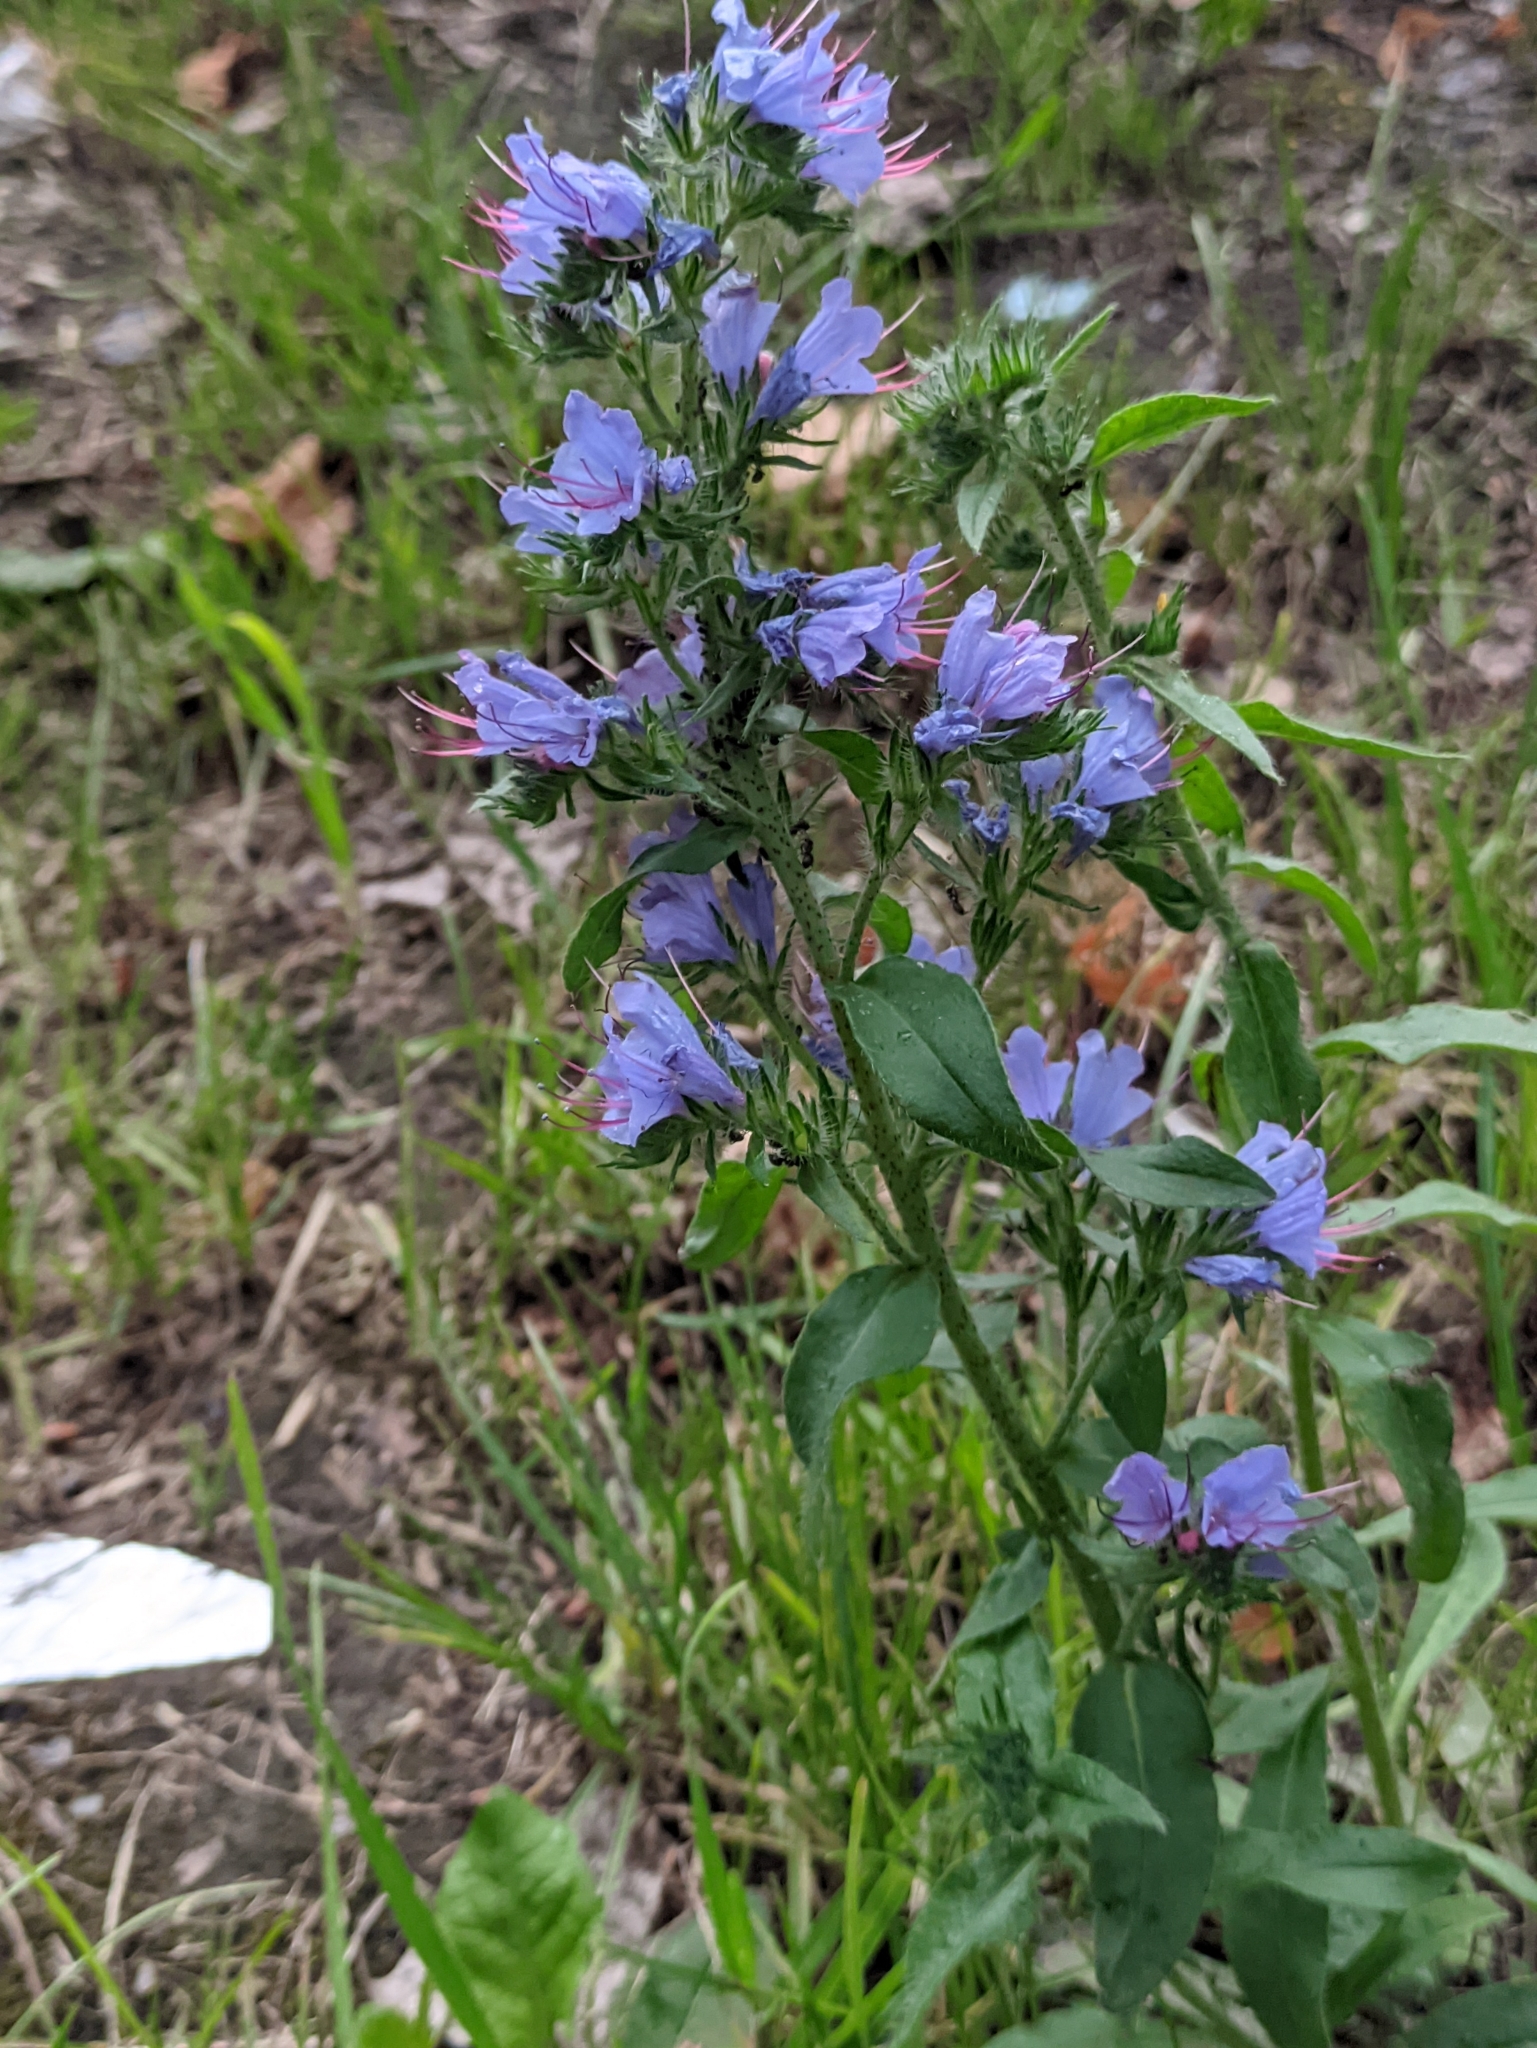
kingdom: Plantae
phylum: Tracheophyta
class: Magnoliopsida
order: Boraginales
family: Boraginaceae
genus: Echium
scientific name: Echium vulgare
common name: Common viper's bugloss
